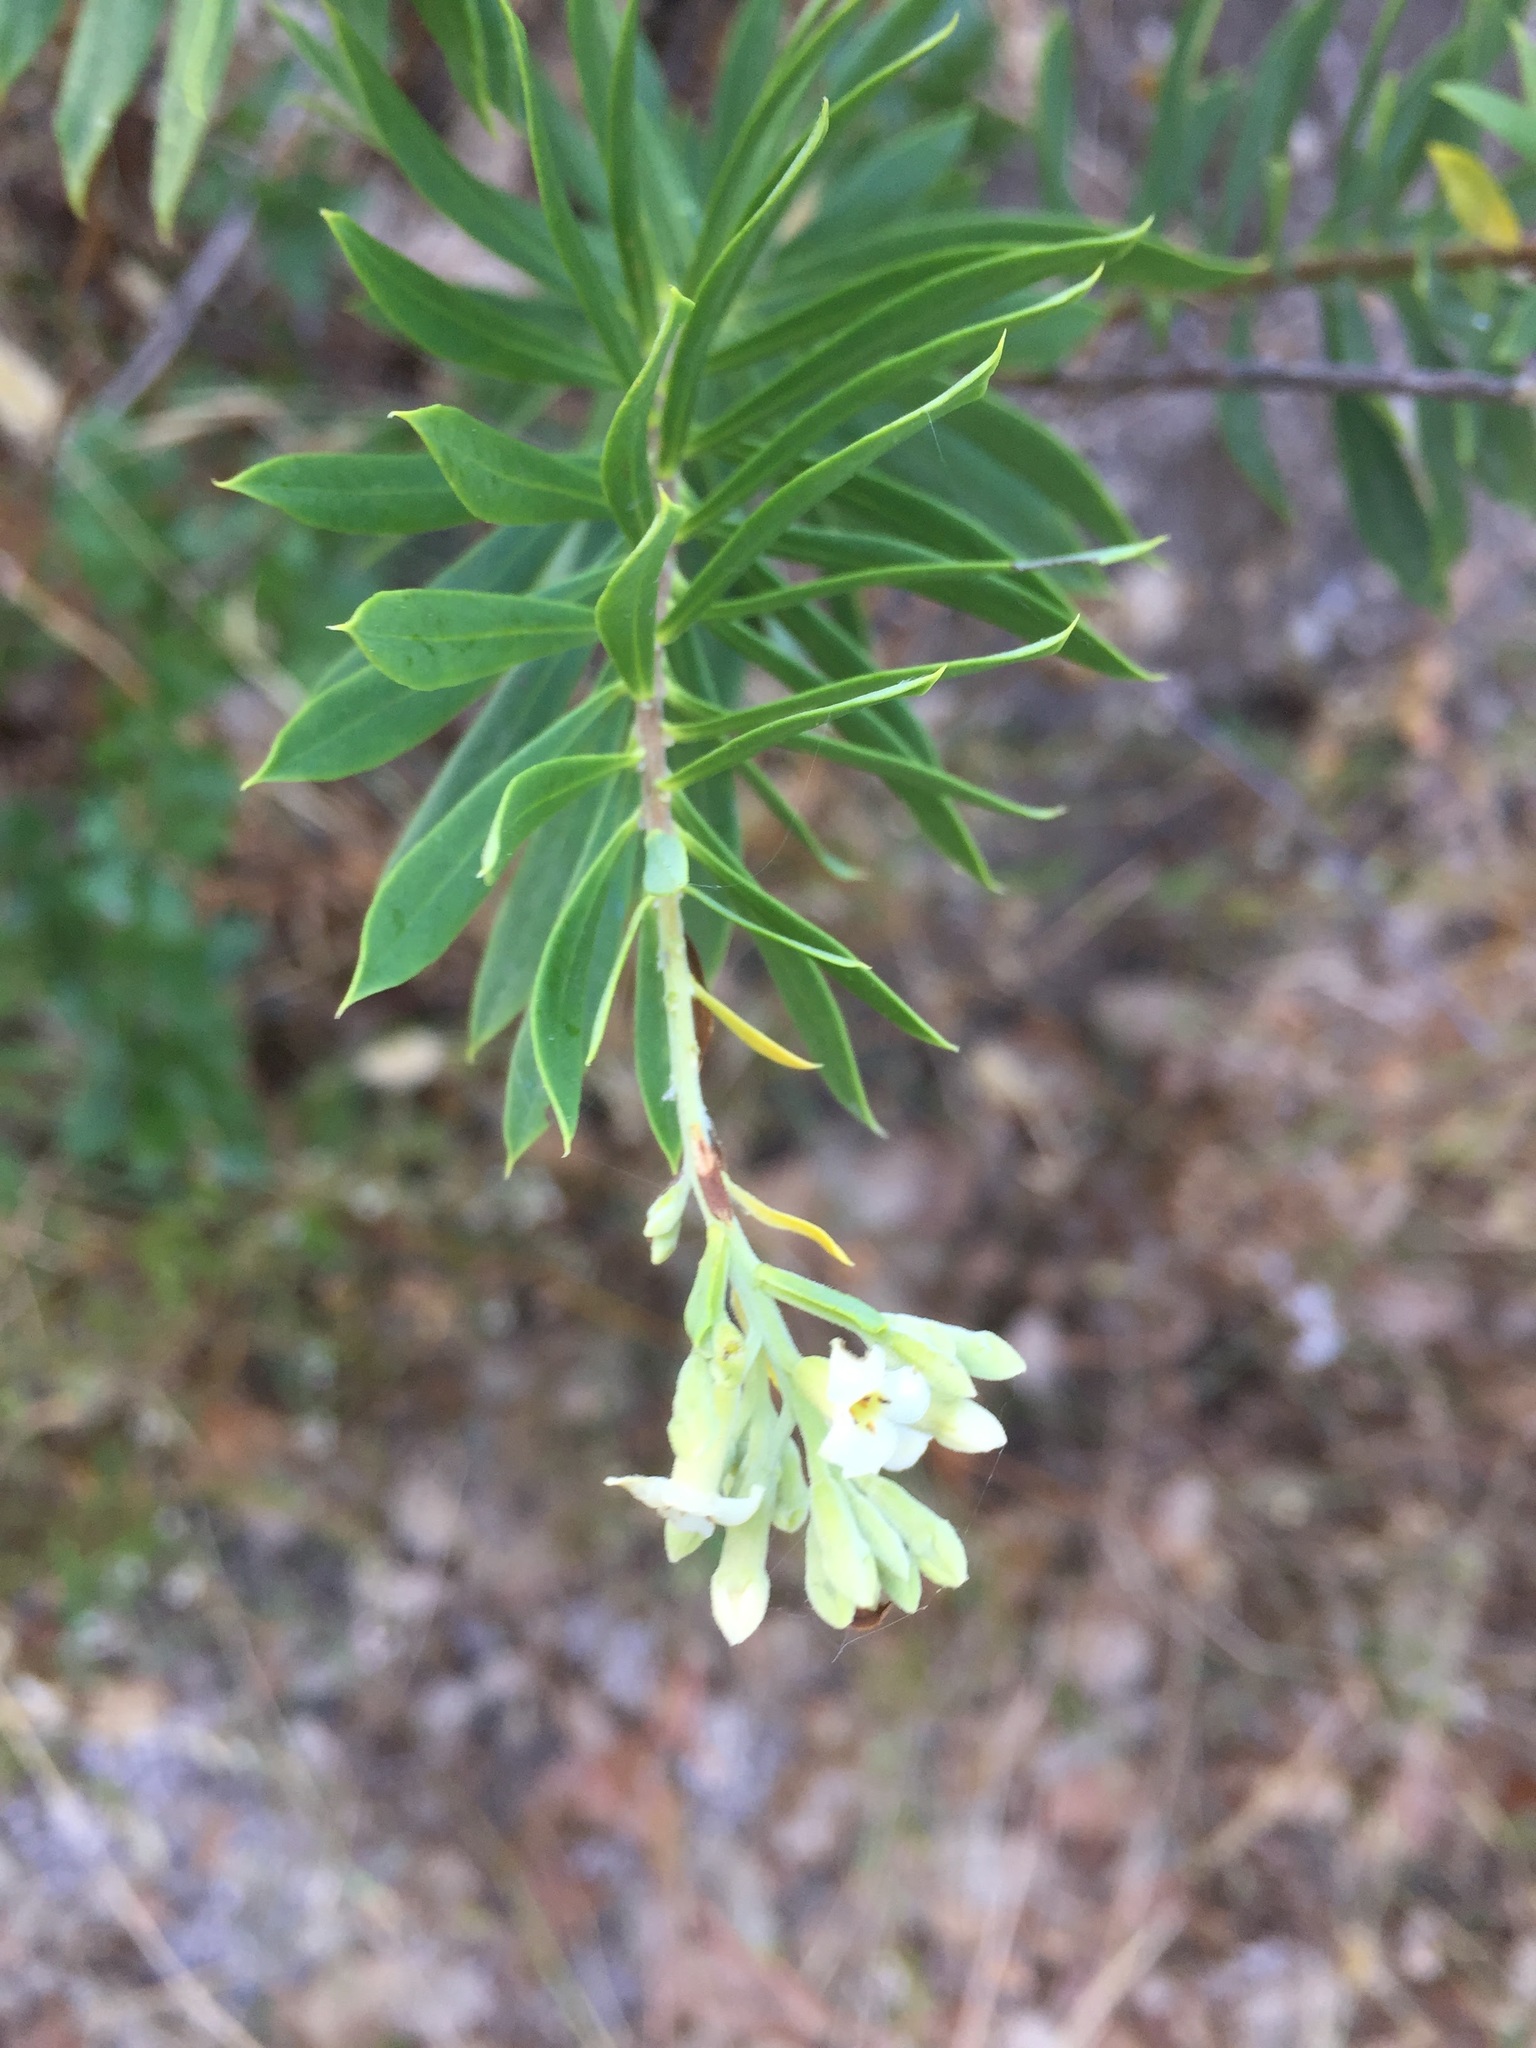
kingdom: Plantae
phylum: Tracheophyta
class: Magnoliopsida
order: Malvales
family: Thymelaeaceae
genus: Daphne
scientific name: Daphne gnidium
